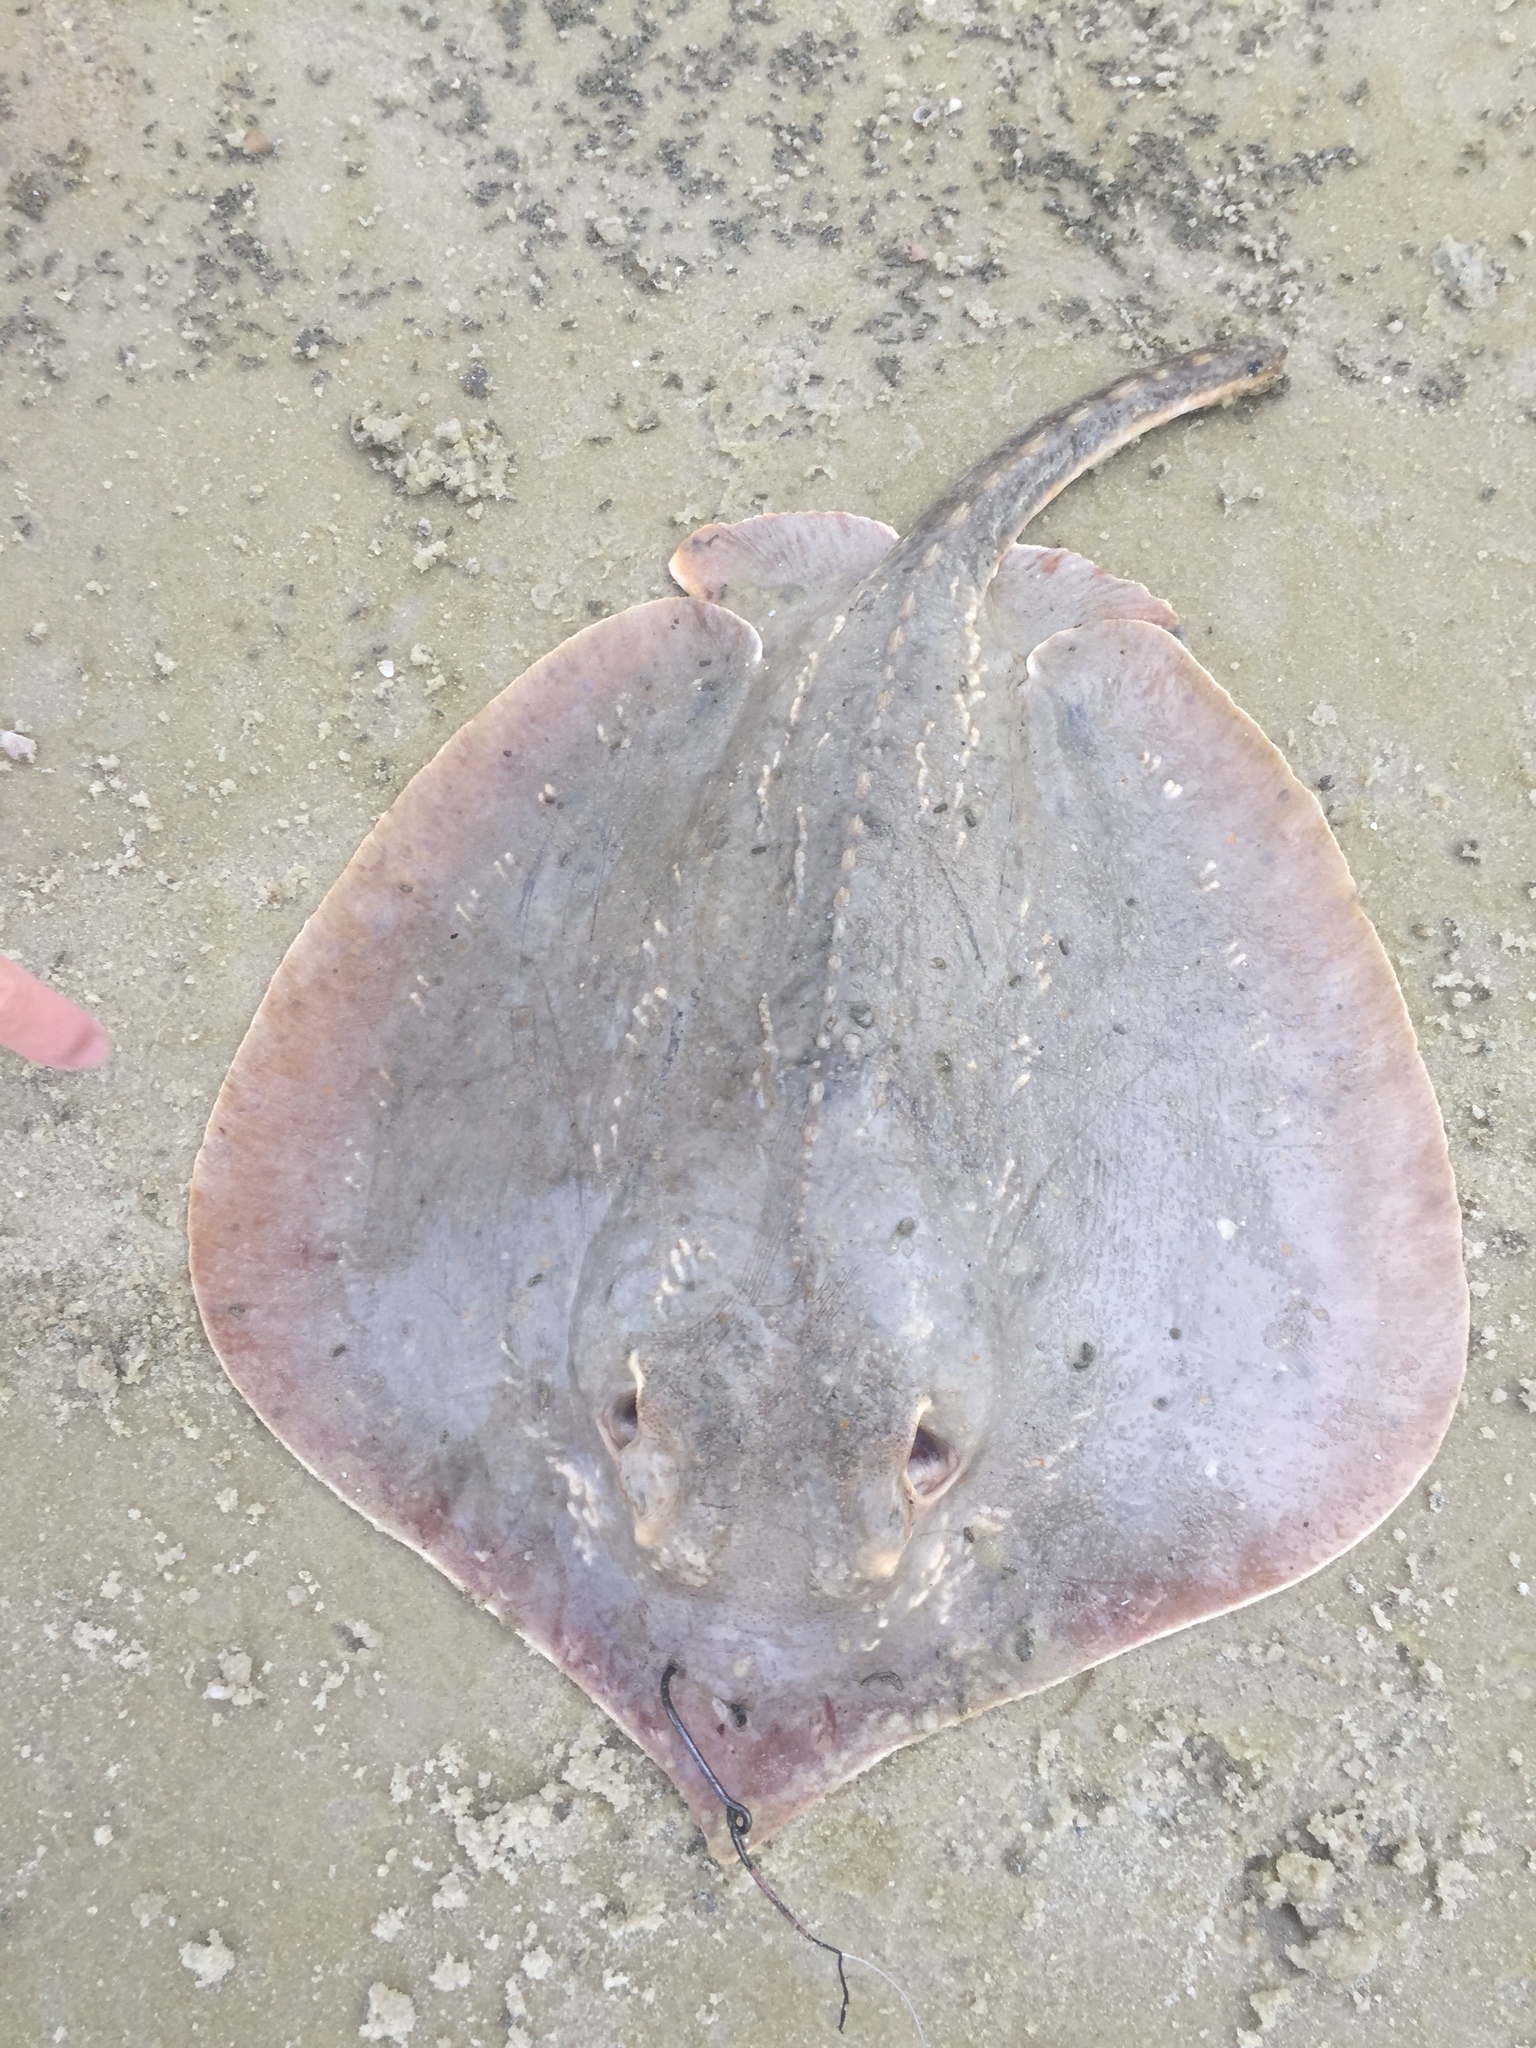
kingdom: Animalia
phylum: Chordata
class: Elasmobranchii
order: Myliobatiformes
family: Dasyatidae
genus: Hypanus
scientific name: Hypanus sabinus
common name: Atlantic stingray
